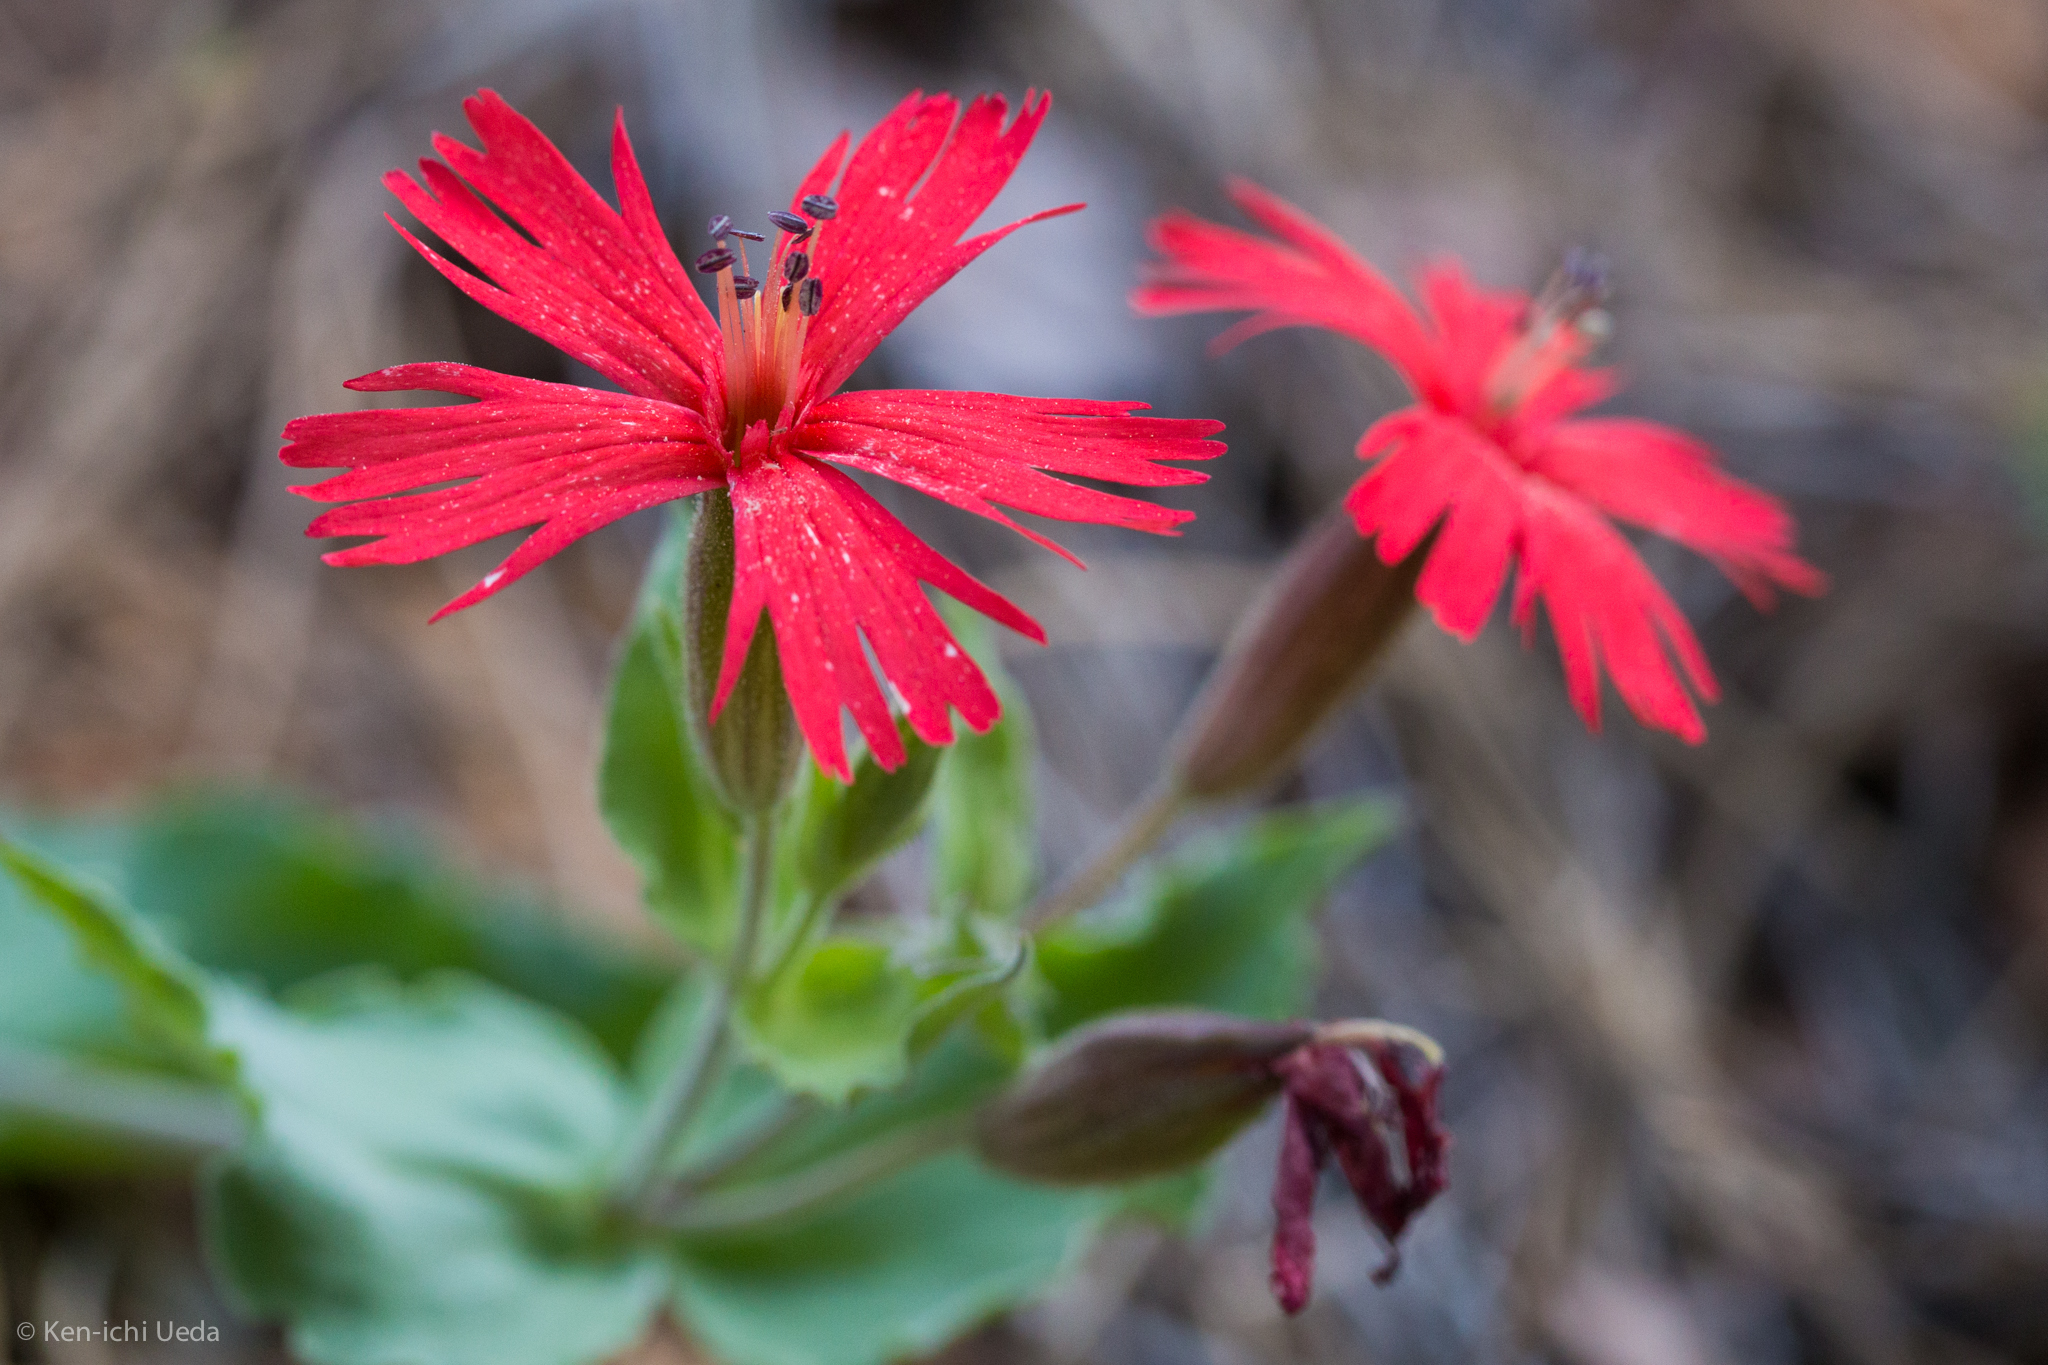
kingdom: Plantae
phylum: Tracheophyta
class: Magnoliopsida
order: Caryophyllales
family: Caryophyllaceae
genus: Silene
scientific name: Silene laciniata
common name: Indian-pink
